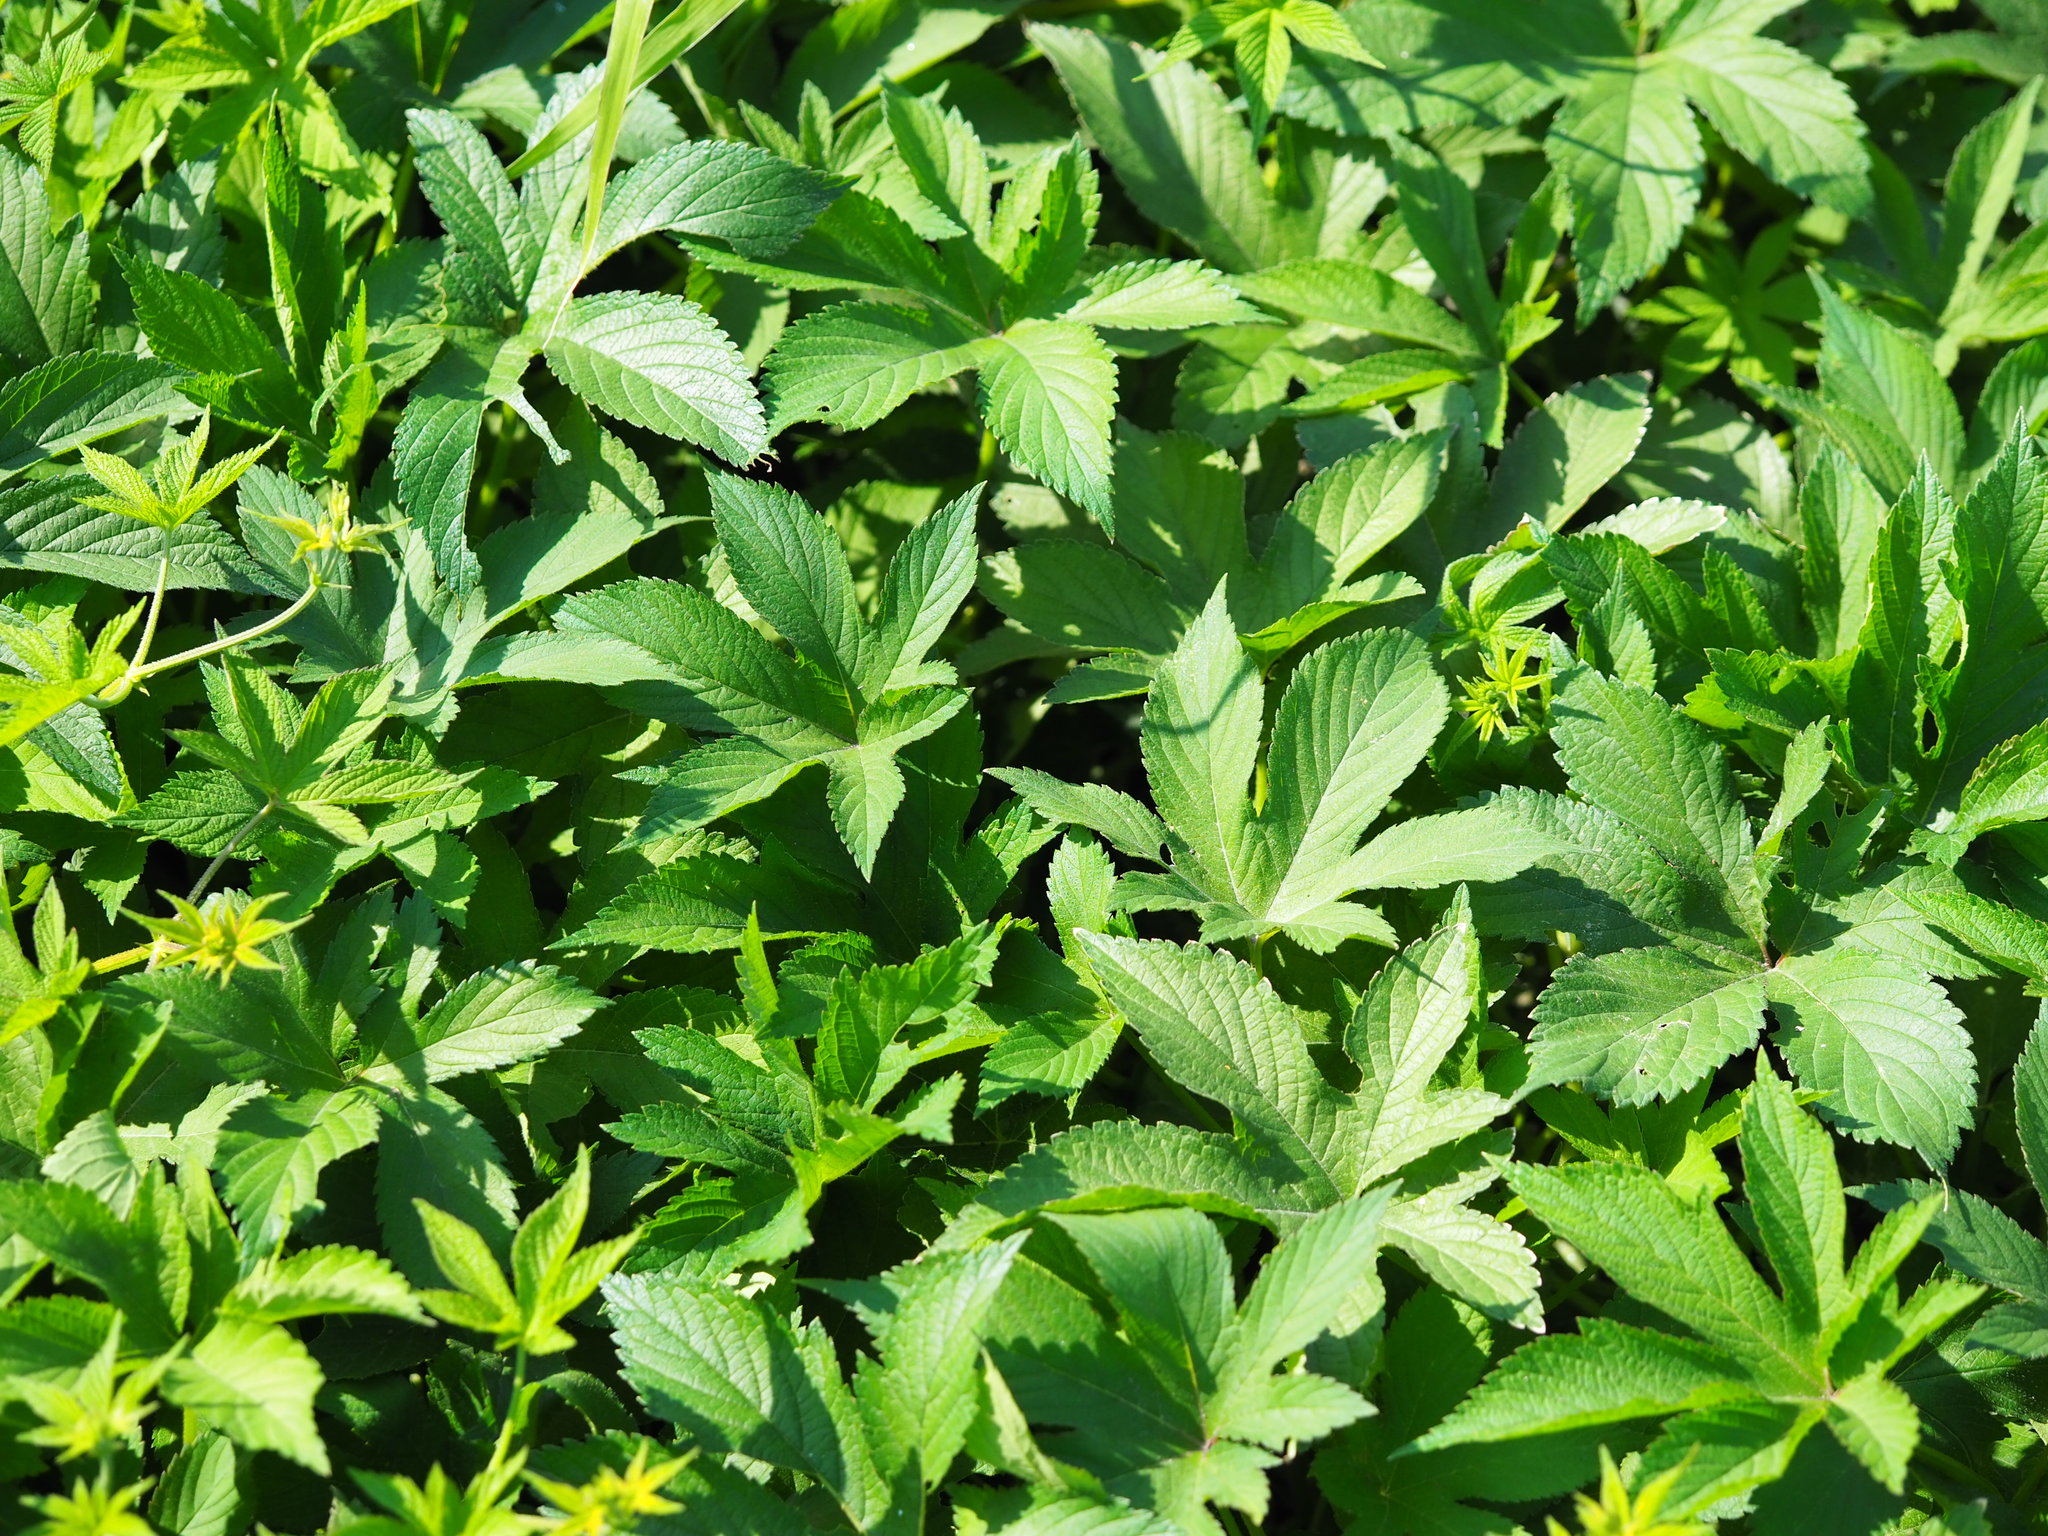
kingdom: Plantae
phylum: Tracheophyta
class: Magnoliopsida
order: Rosales
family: Cannabaceae
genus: Humulus
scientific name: Humulus scandens
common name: Japanese hop
